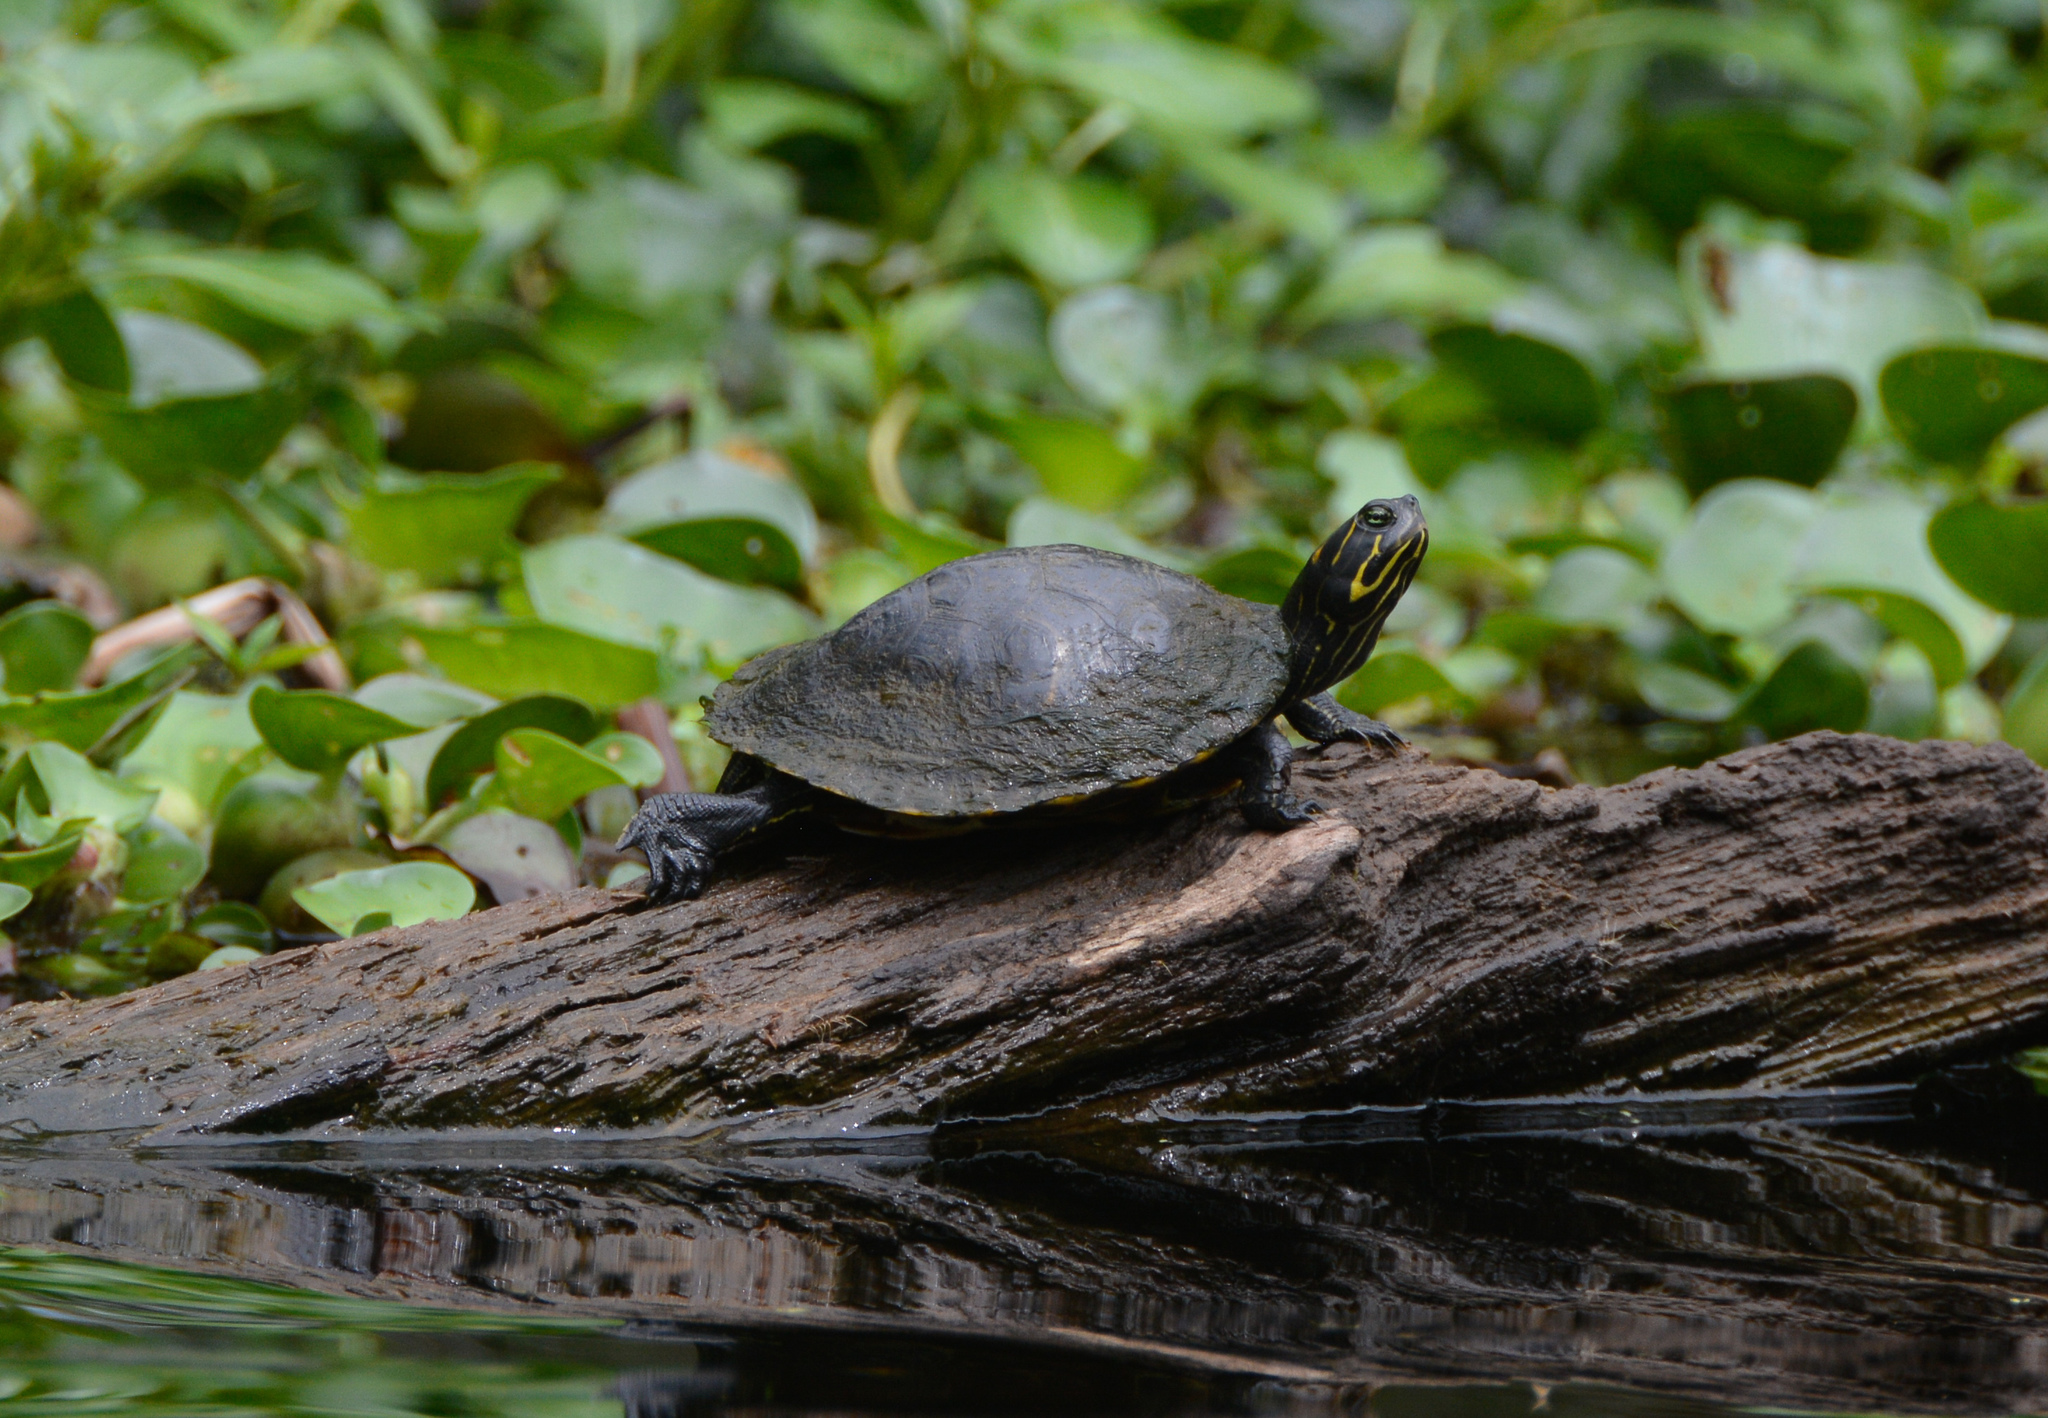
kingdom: Animalia
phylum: Chordata
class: Testudines
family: Emydidae
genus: Pseudemys
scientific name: Pseudemys concinna
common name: Eastern river cooter
